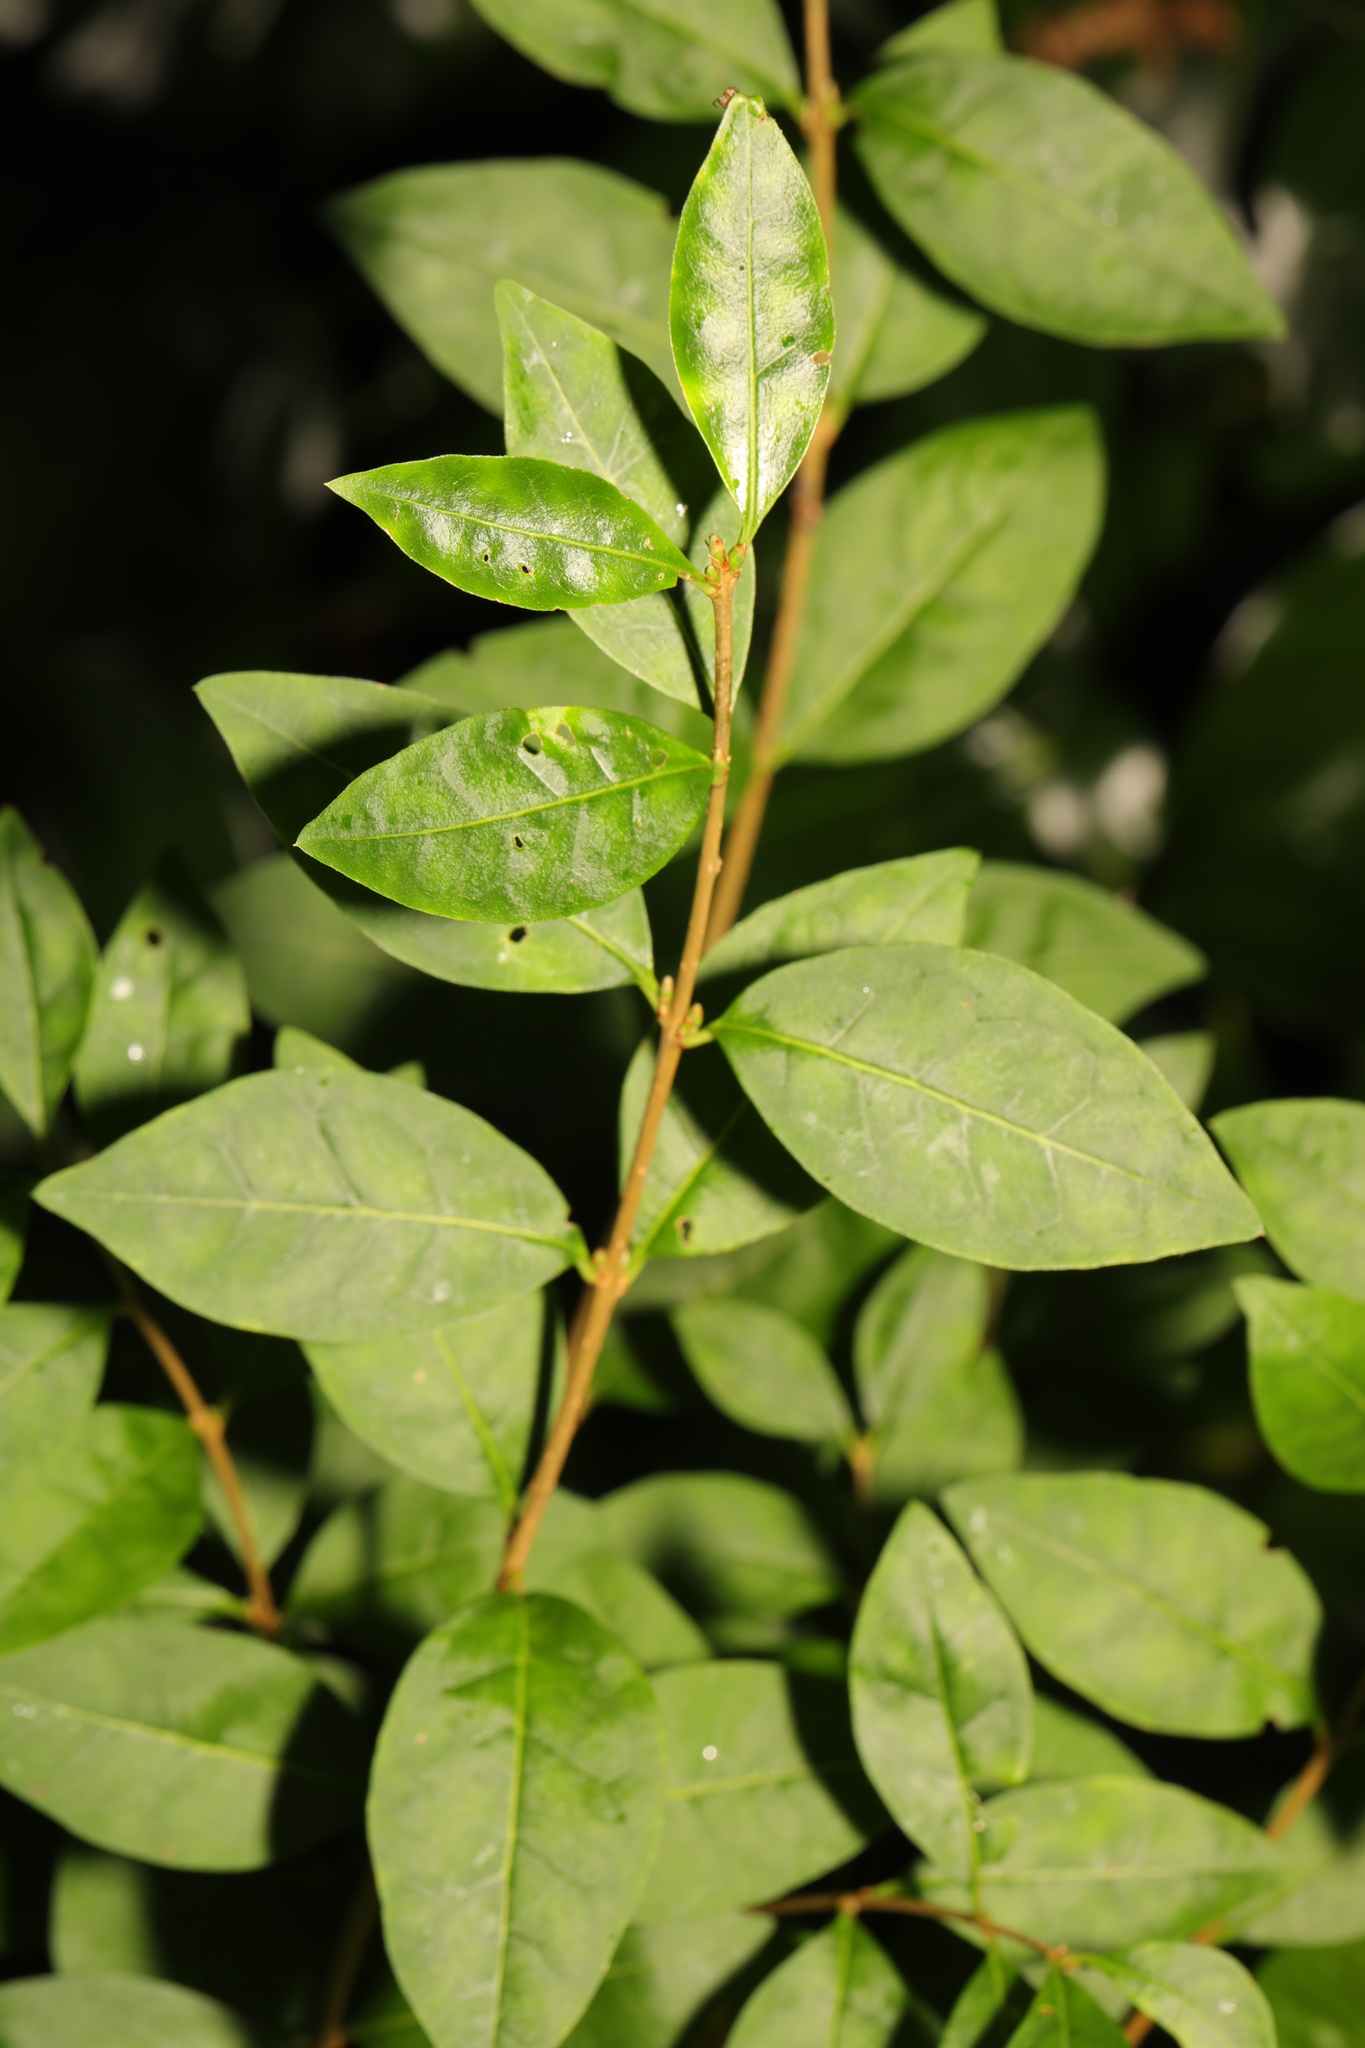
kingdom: Plantae
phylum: Tracheophyta
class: Magnoliopsida
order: Lamiales
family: Oleaceae
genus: Ligustrum
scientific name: Ligustrum ovalifolium
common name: California privet
